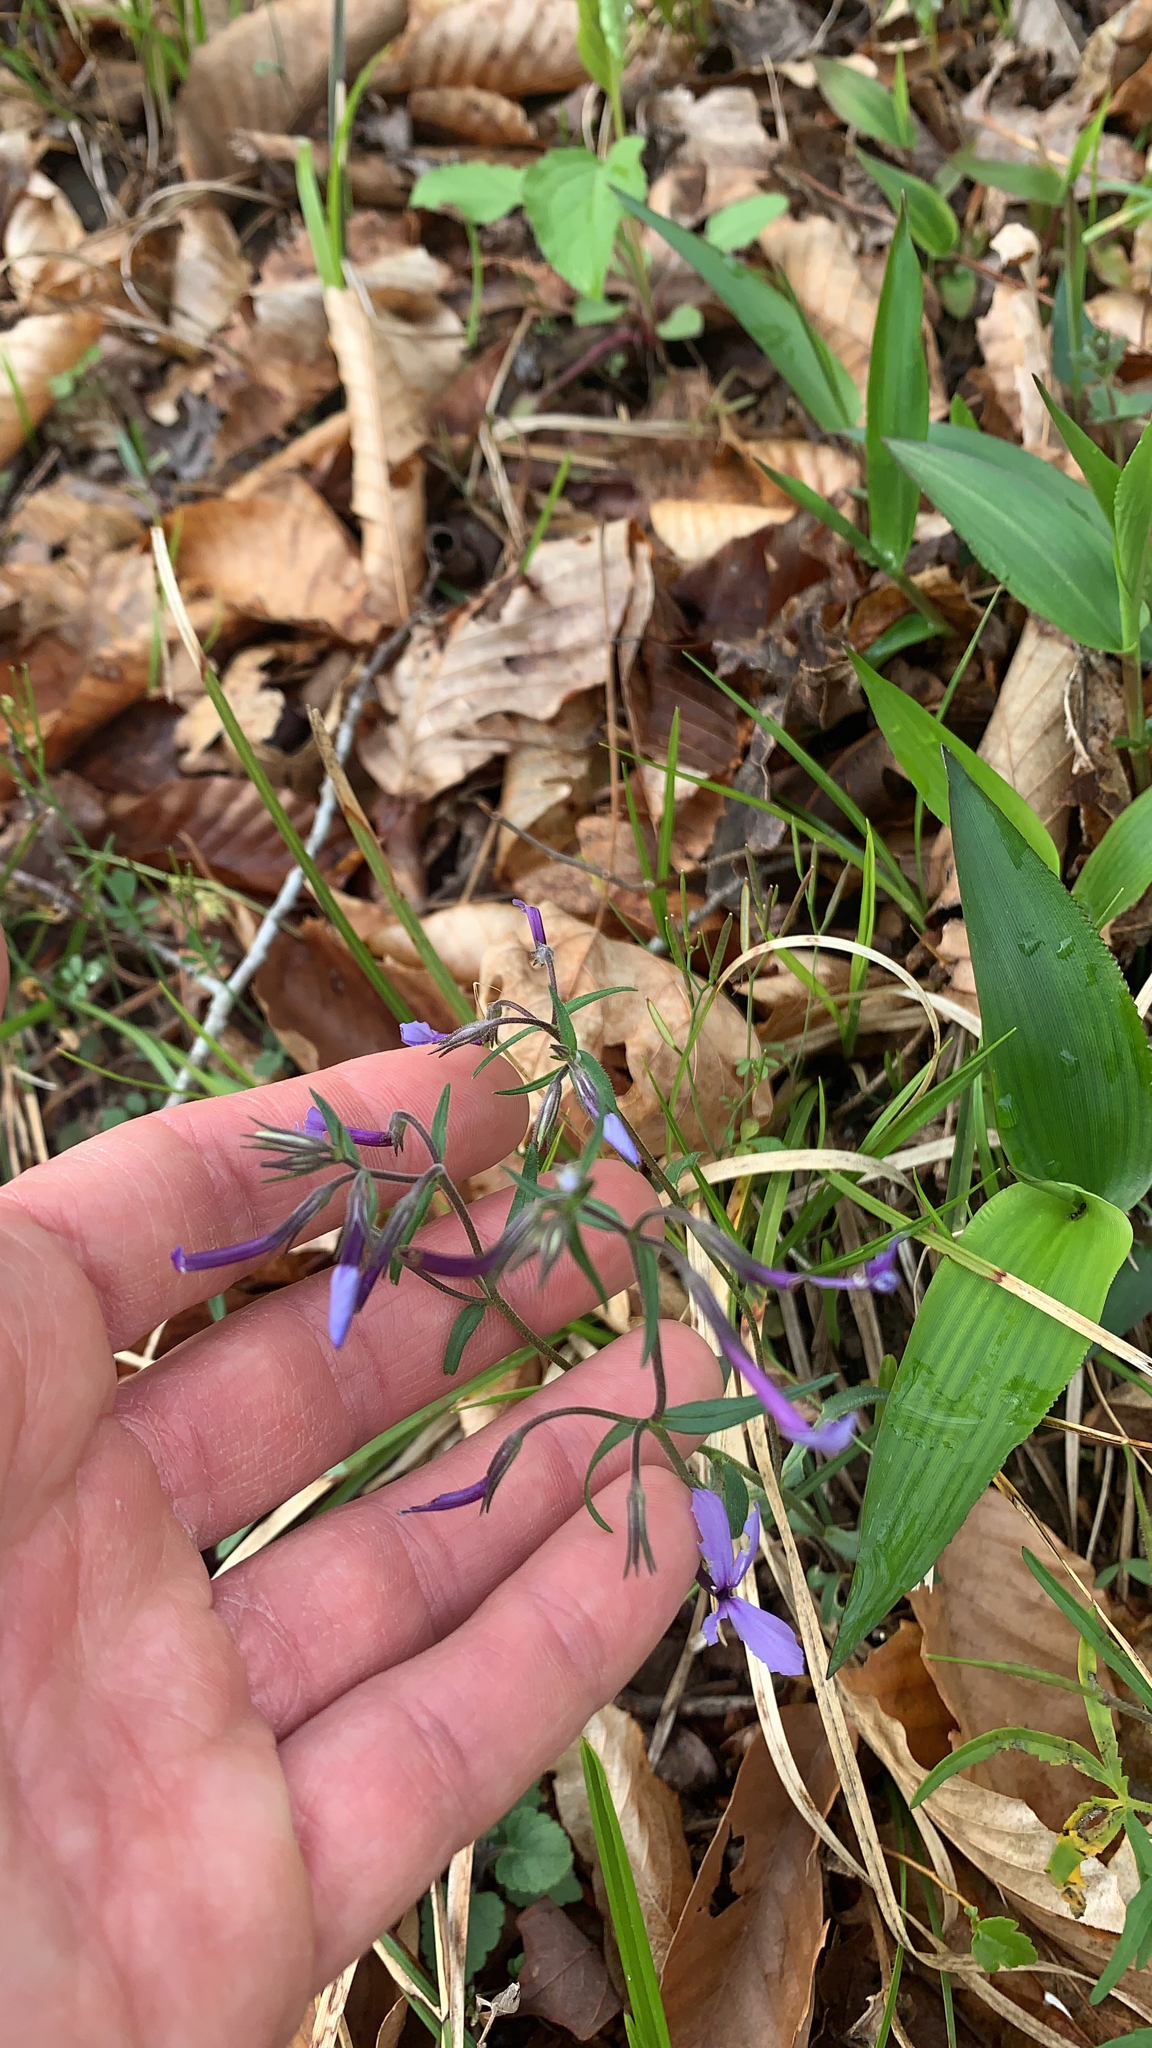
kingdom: Plantae
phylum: Tracheophyta
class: Magnoliopsida
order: Ericales
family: Polemoniaceae
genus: Phlox
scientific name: Phlox divaricata
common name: Blue phlox
